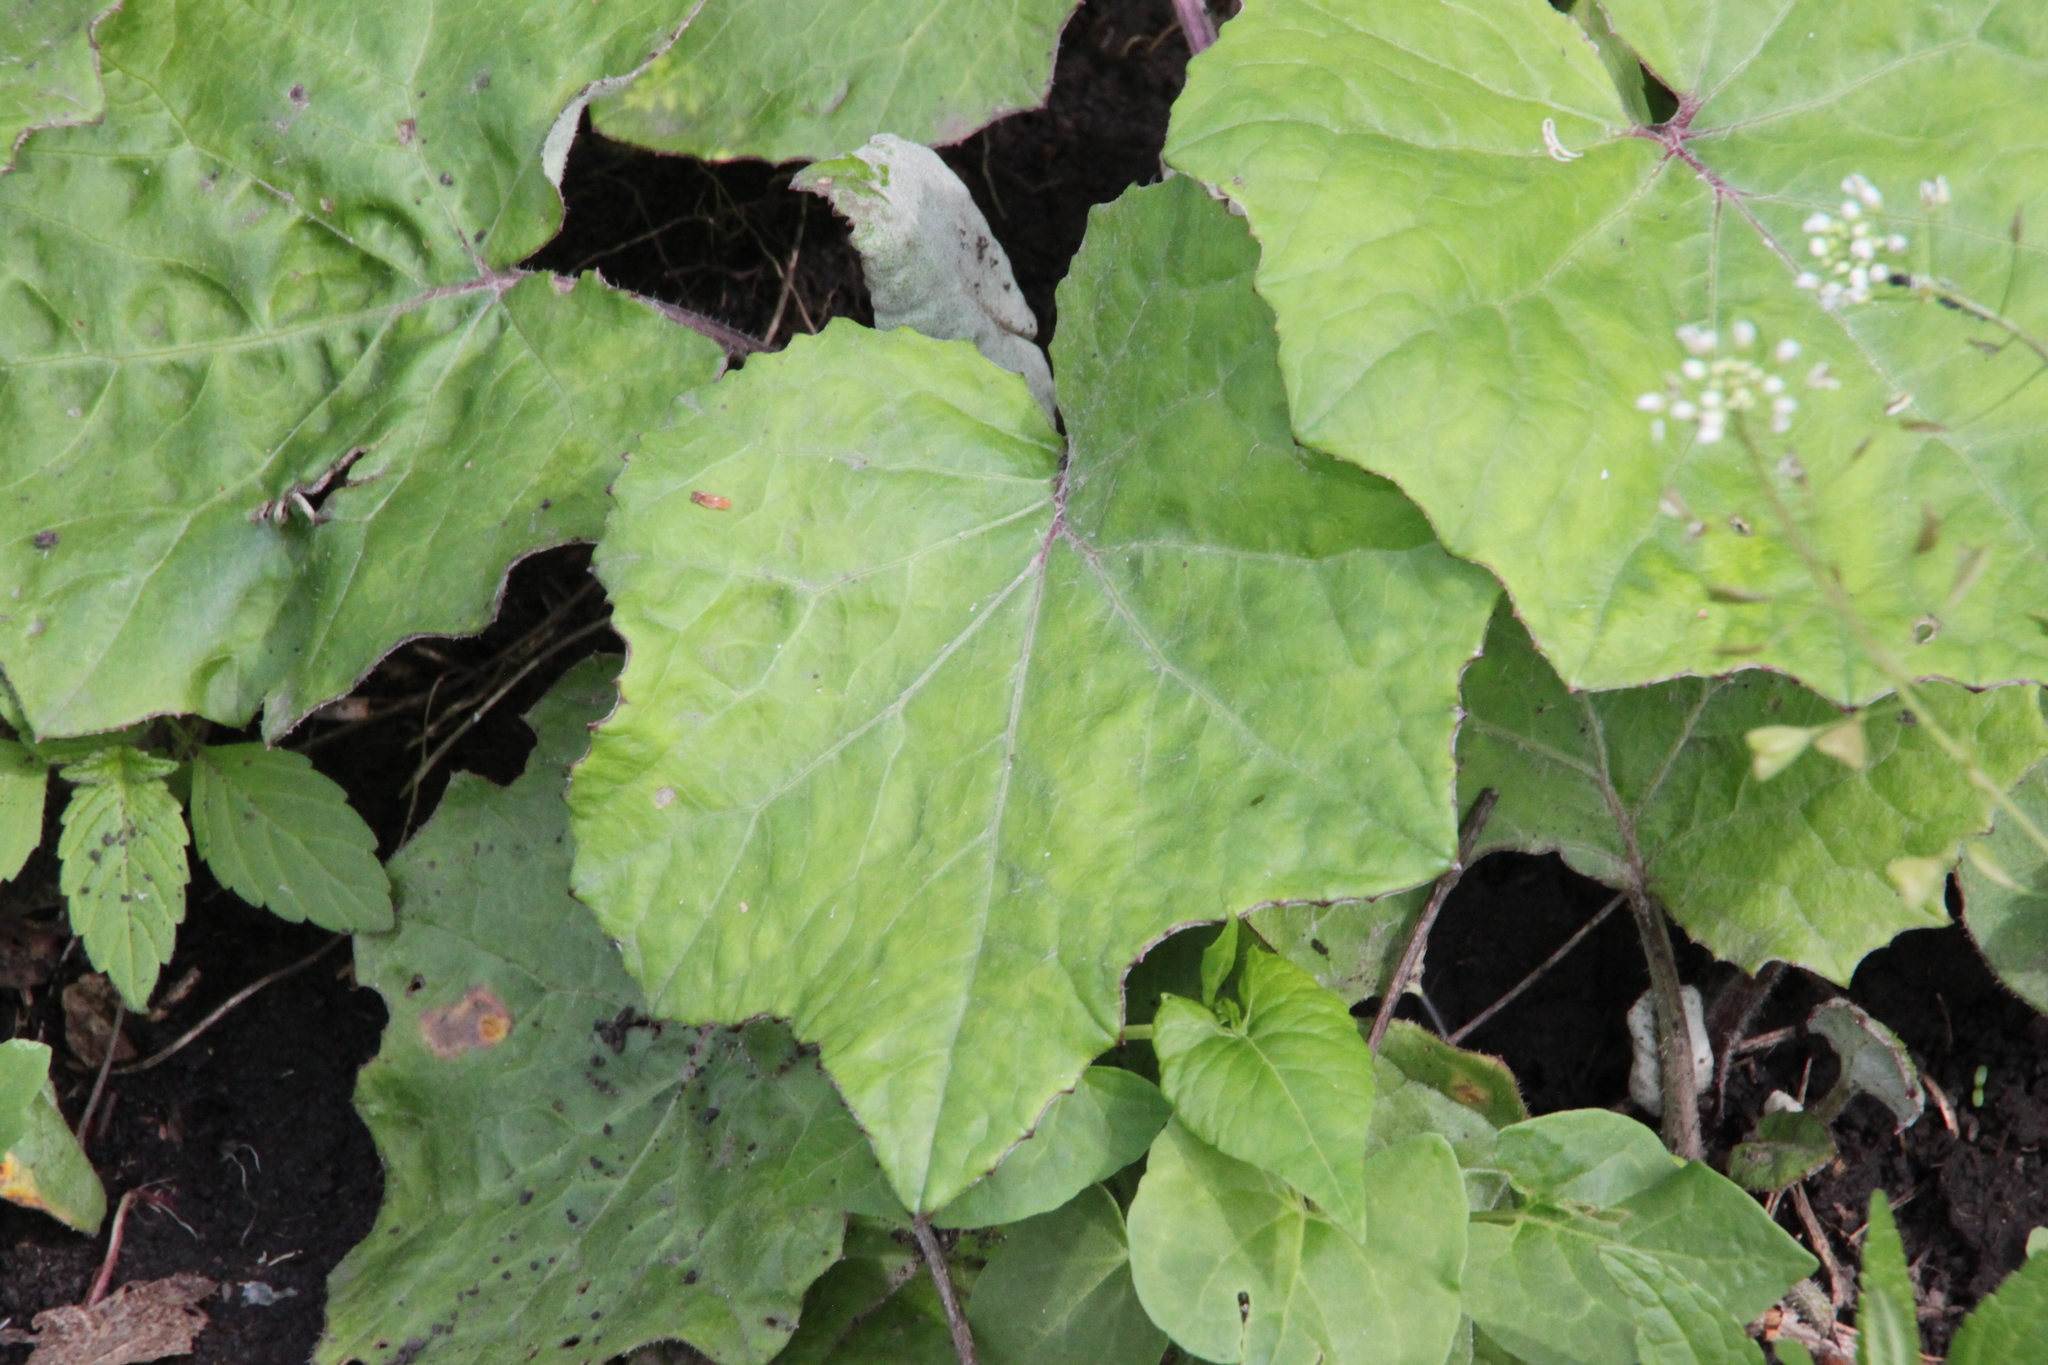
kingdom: Plantae
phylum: Tracheophyta
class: Magnoliopsida
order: Asterales
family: Asteraceae
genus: Tussilago
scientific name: Tussilago farfara
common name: Coltsfoot
